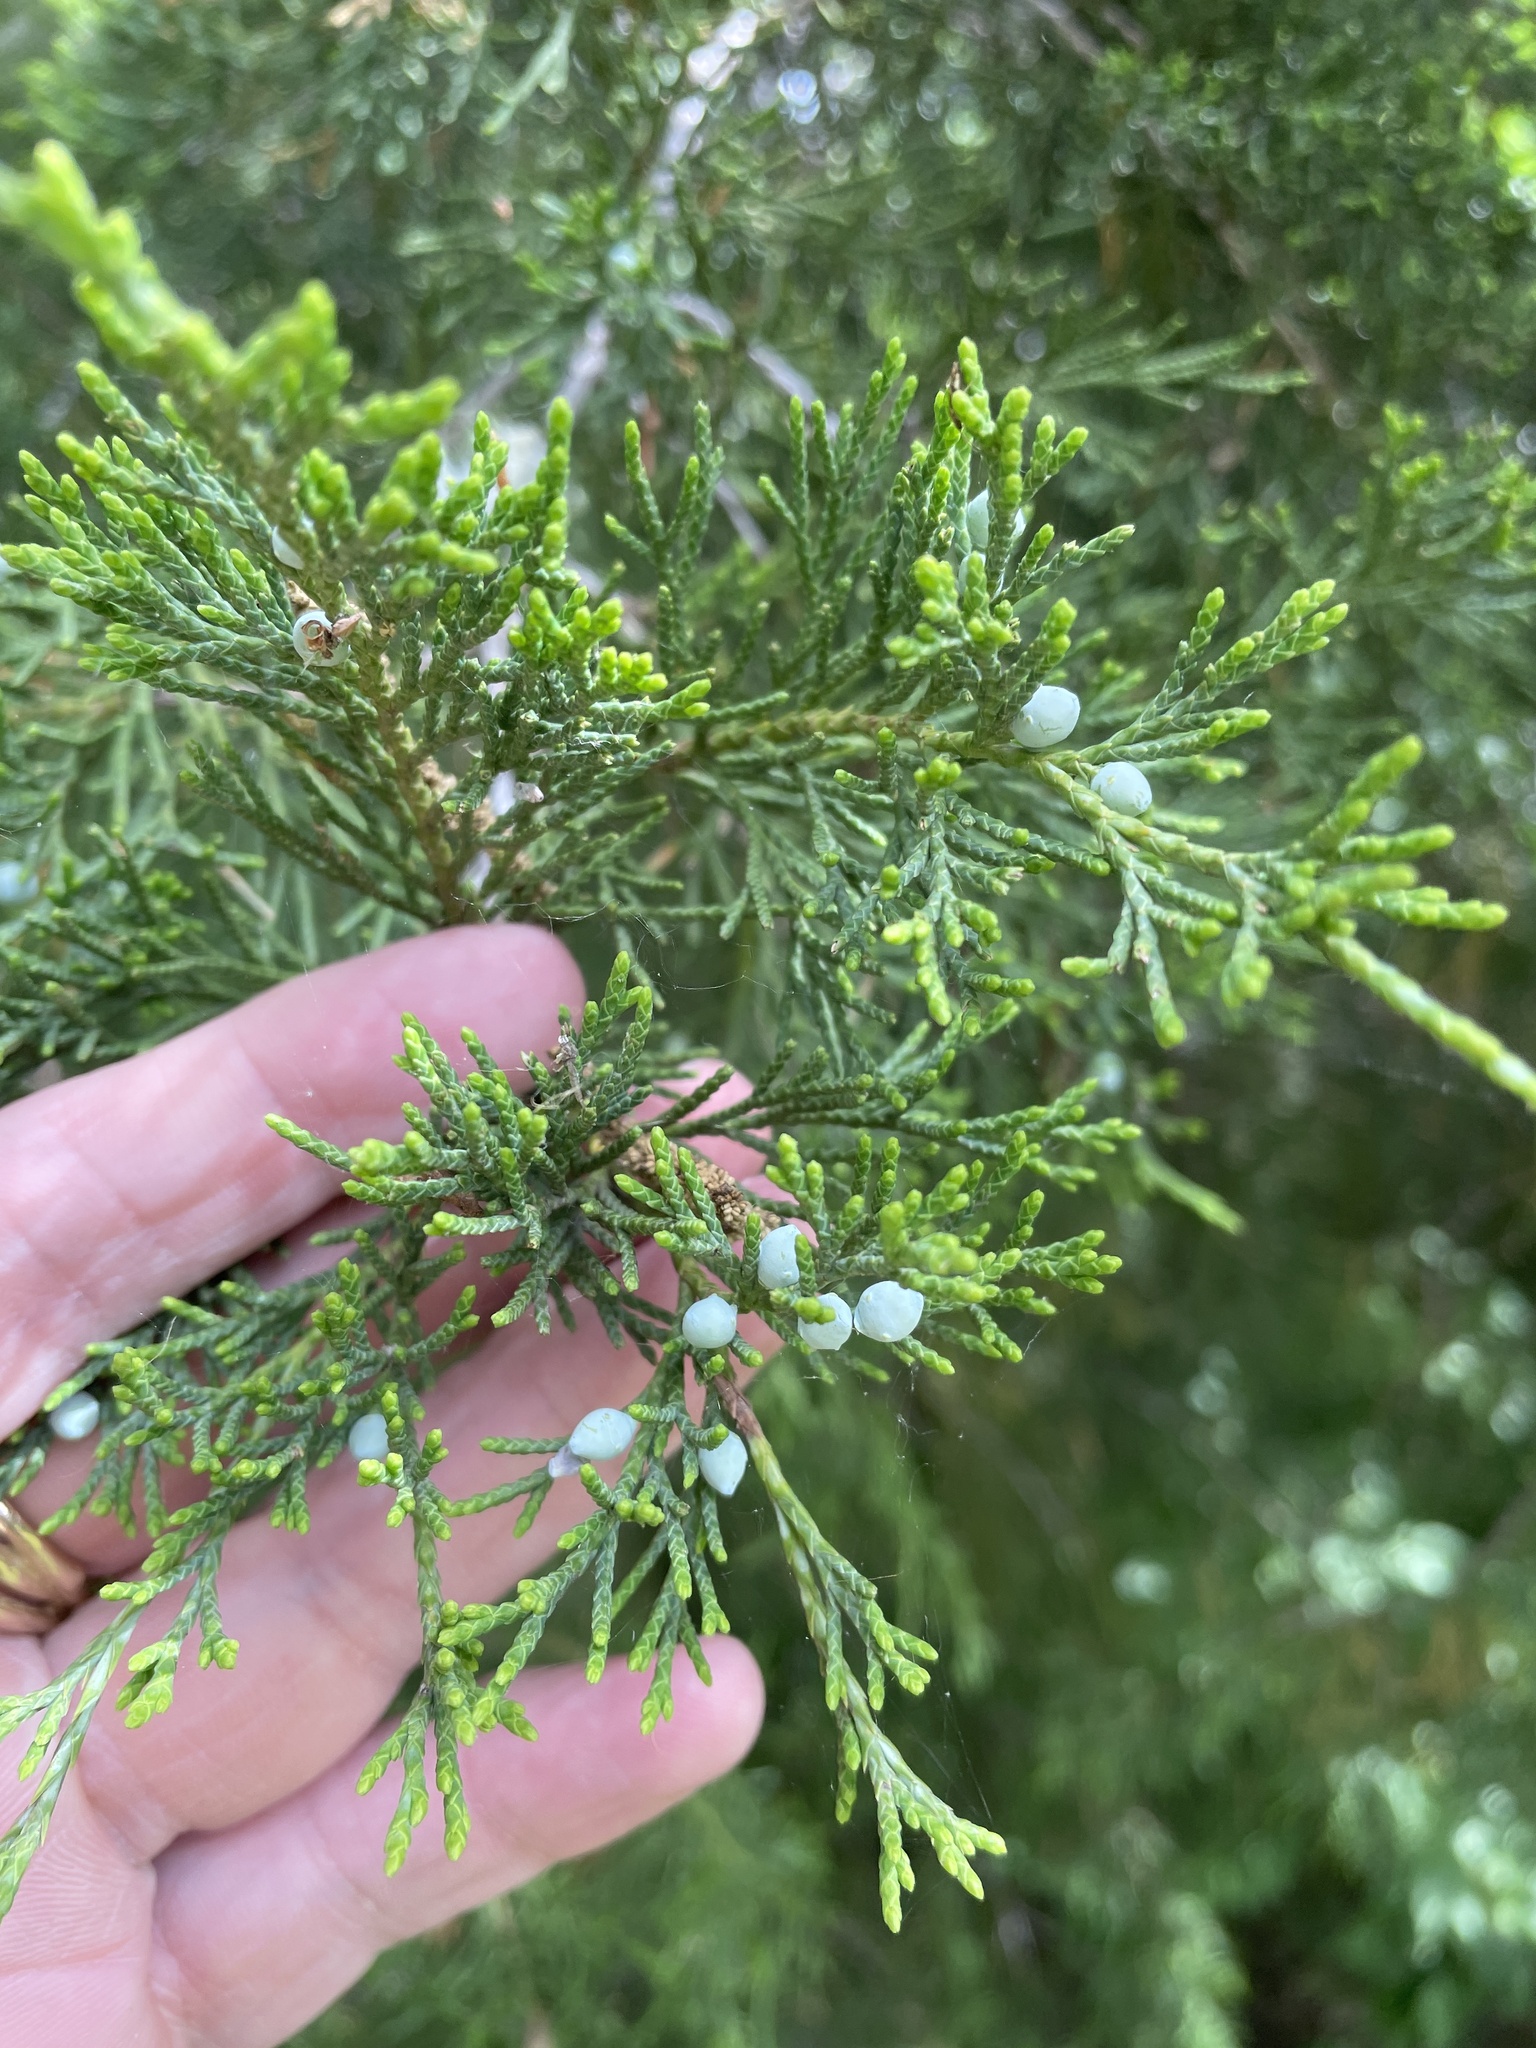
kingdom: Plantae
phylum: Tracheophyta
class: Pinopsida
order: Pinales
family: Cupressaceae
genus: Juniperus
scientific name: Juniperus virginiana
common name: Red juniper
